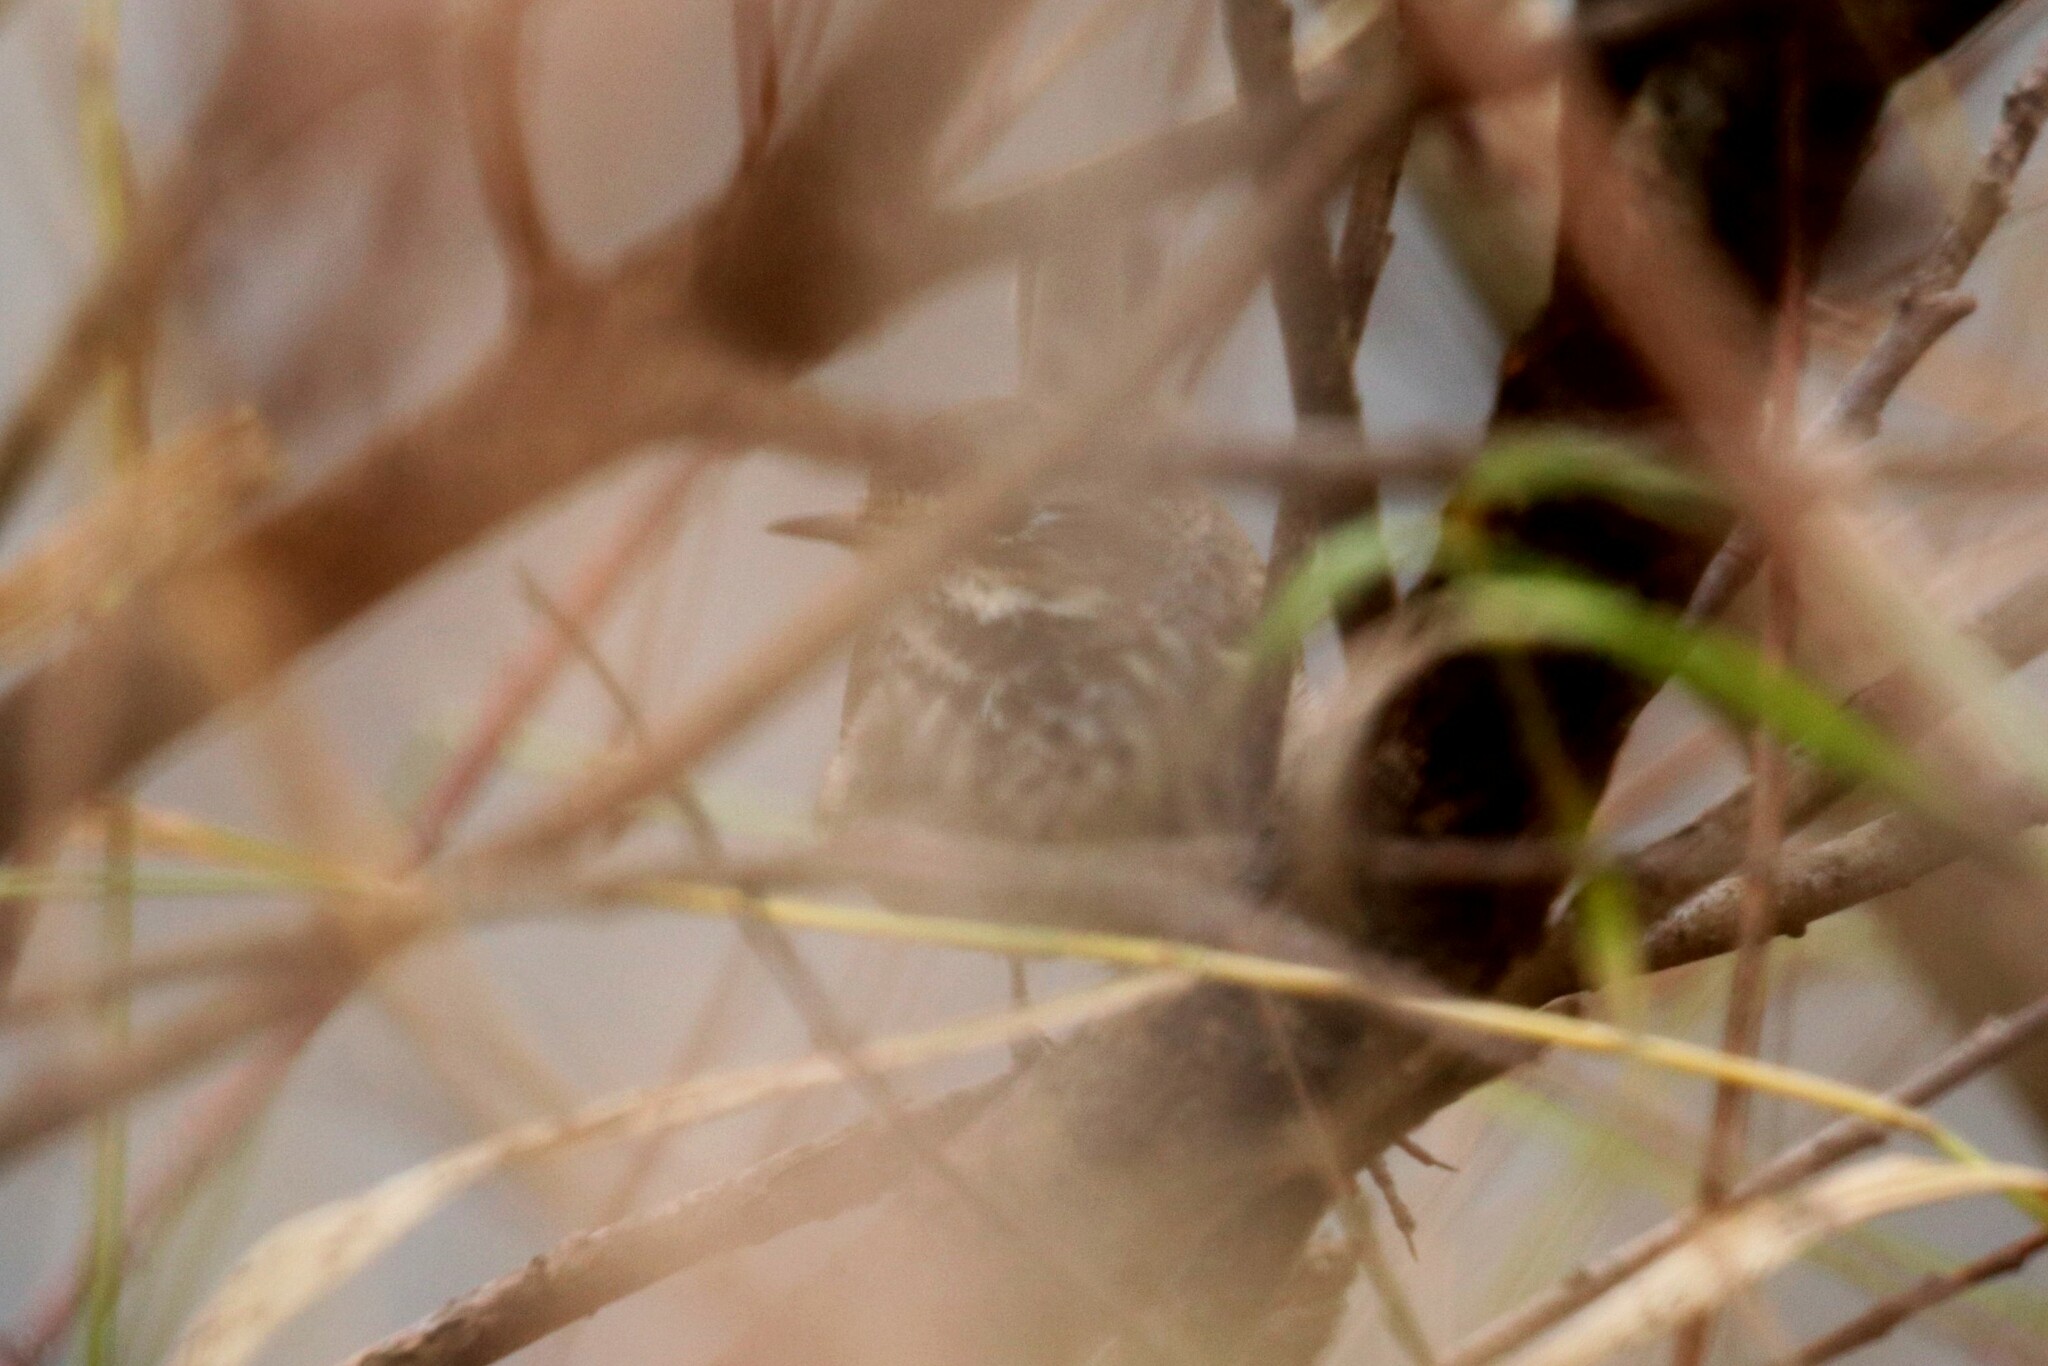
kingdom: Animalia
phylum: Chordata
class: Aves
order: Passeriformes
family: Muscicapidae
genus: Luscinia
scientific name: Luscinia svecica
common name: Bluethroat
